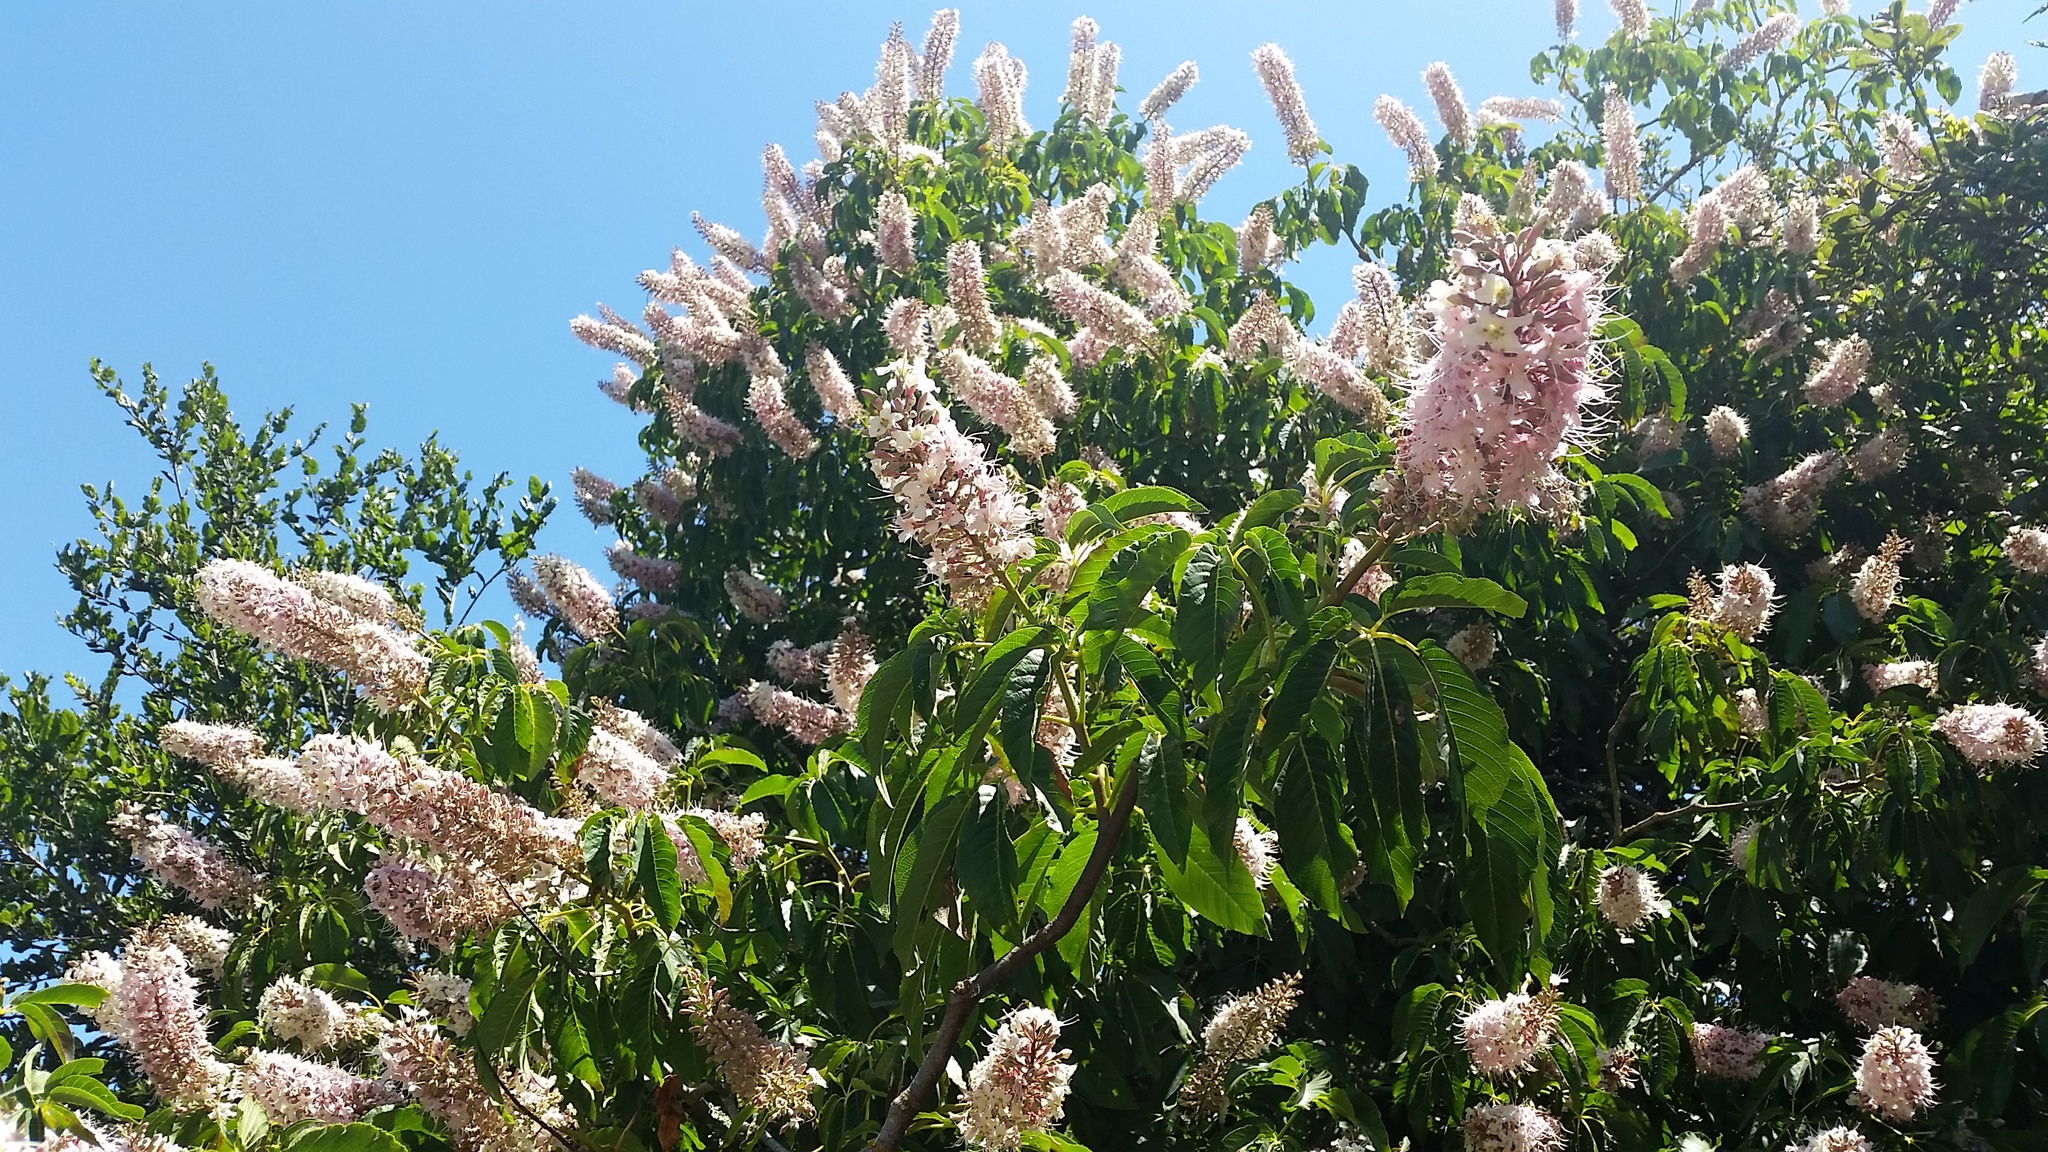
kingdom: Plantae
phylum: Tracheophyta
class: Magnoliopsida
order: Sapindales
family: Sapindaceae
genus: Aesculus
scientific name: Aesculus californica
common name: California buckeye
